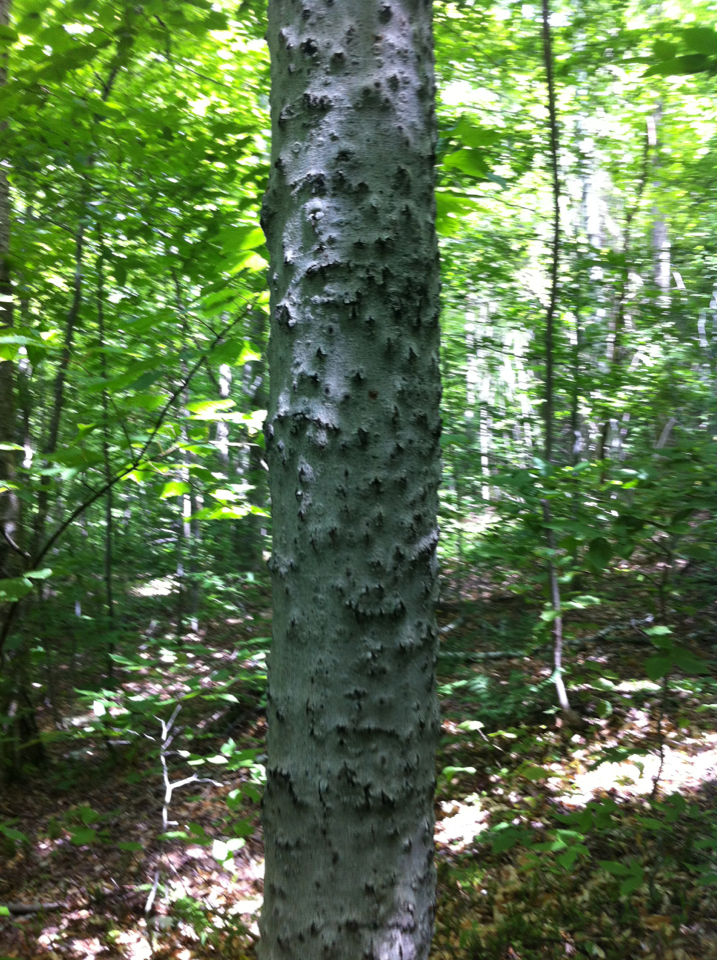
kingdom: Plantae
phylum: Tracheophyta
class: Magnoliopsida
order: Fagales
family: Fagaceae
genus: Fagus
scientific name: Fagus grandifolia
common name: American beech
